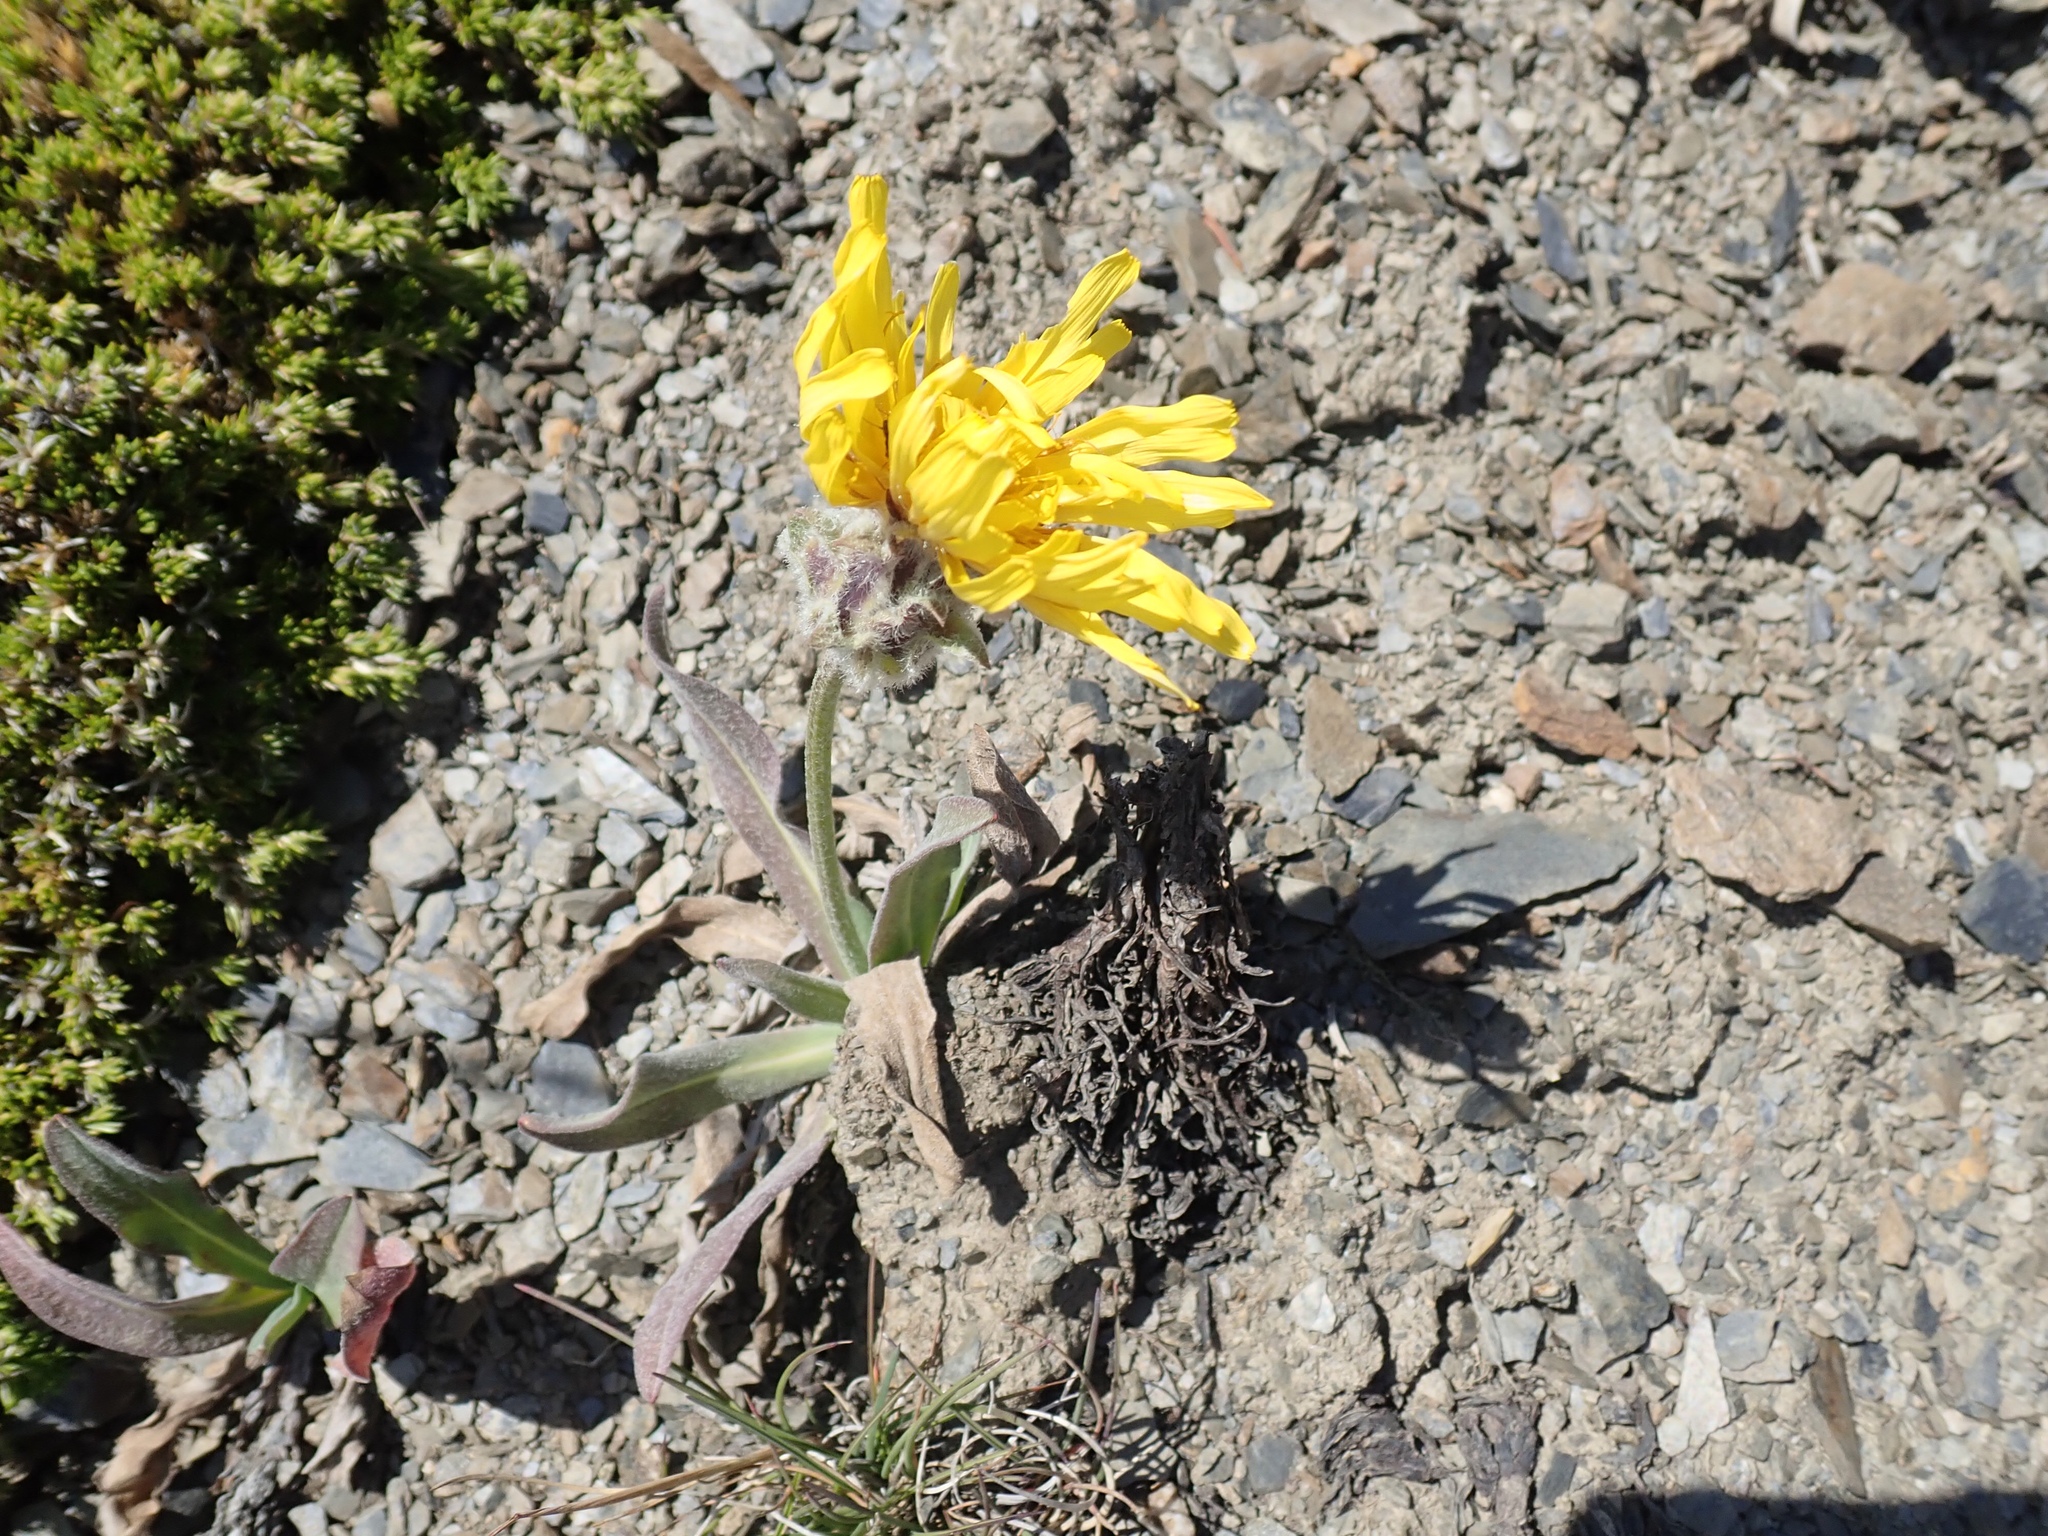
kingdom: Plantae
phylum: Tracheophyta
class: Magnoliopsida
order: Asterales
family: Asteraceae
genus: Agoseris
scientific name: Agoseris glauca
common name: Prairie agoseris
